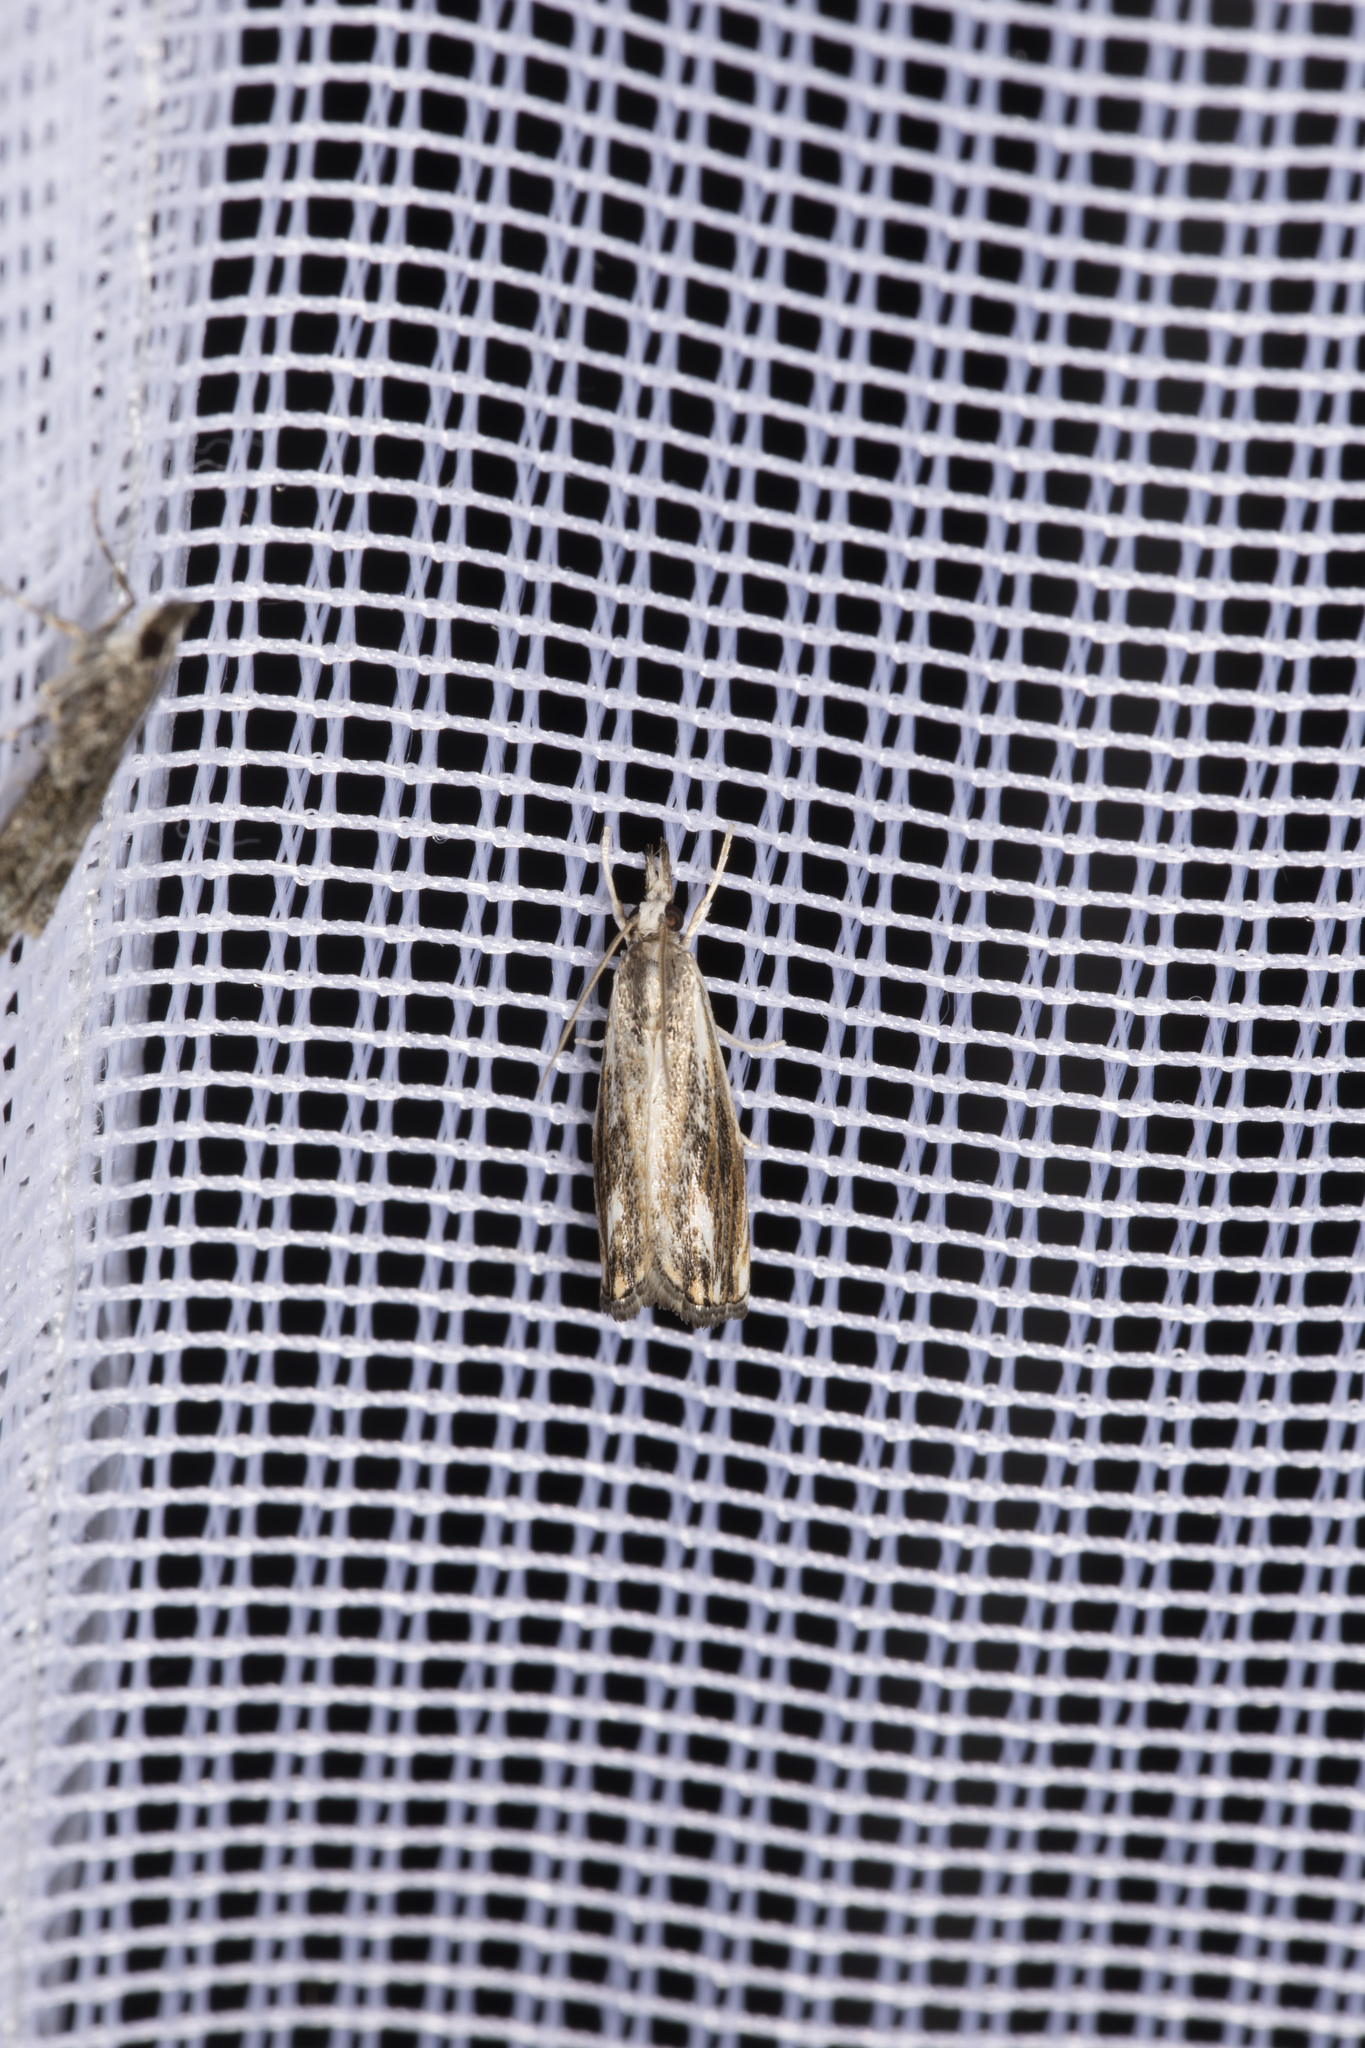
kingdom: Animalia
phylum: Arthropoda
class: Insecta
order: Lepidoptera
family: Crambidae
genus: Catoptria
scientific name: Catoptria verellus
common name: Marbled grass-veneer
